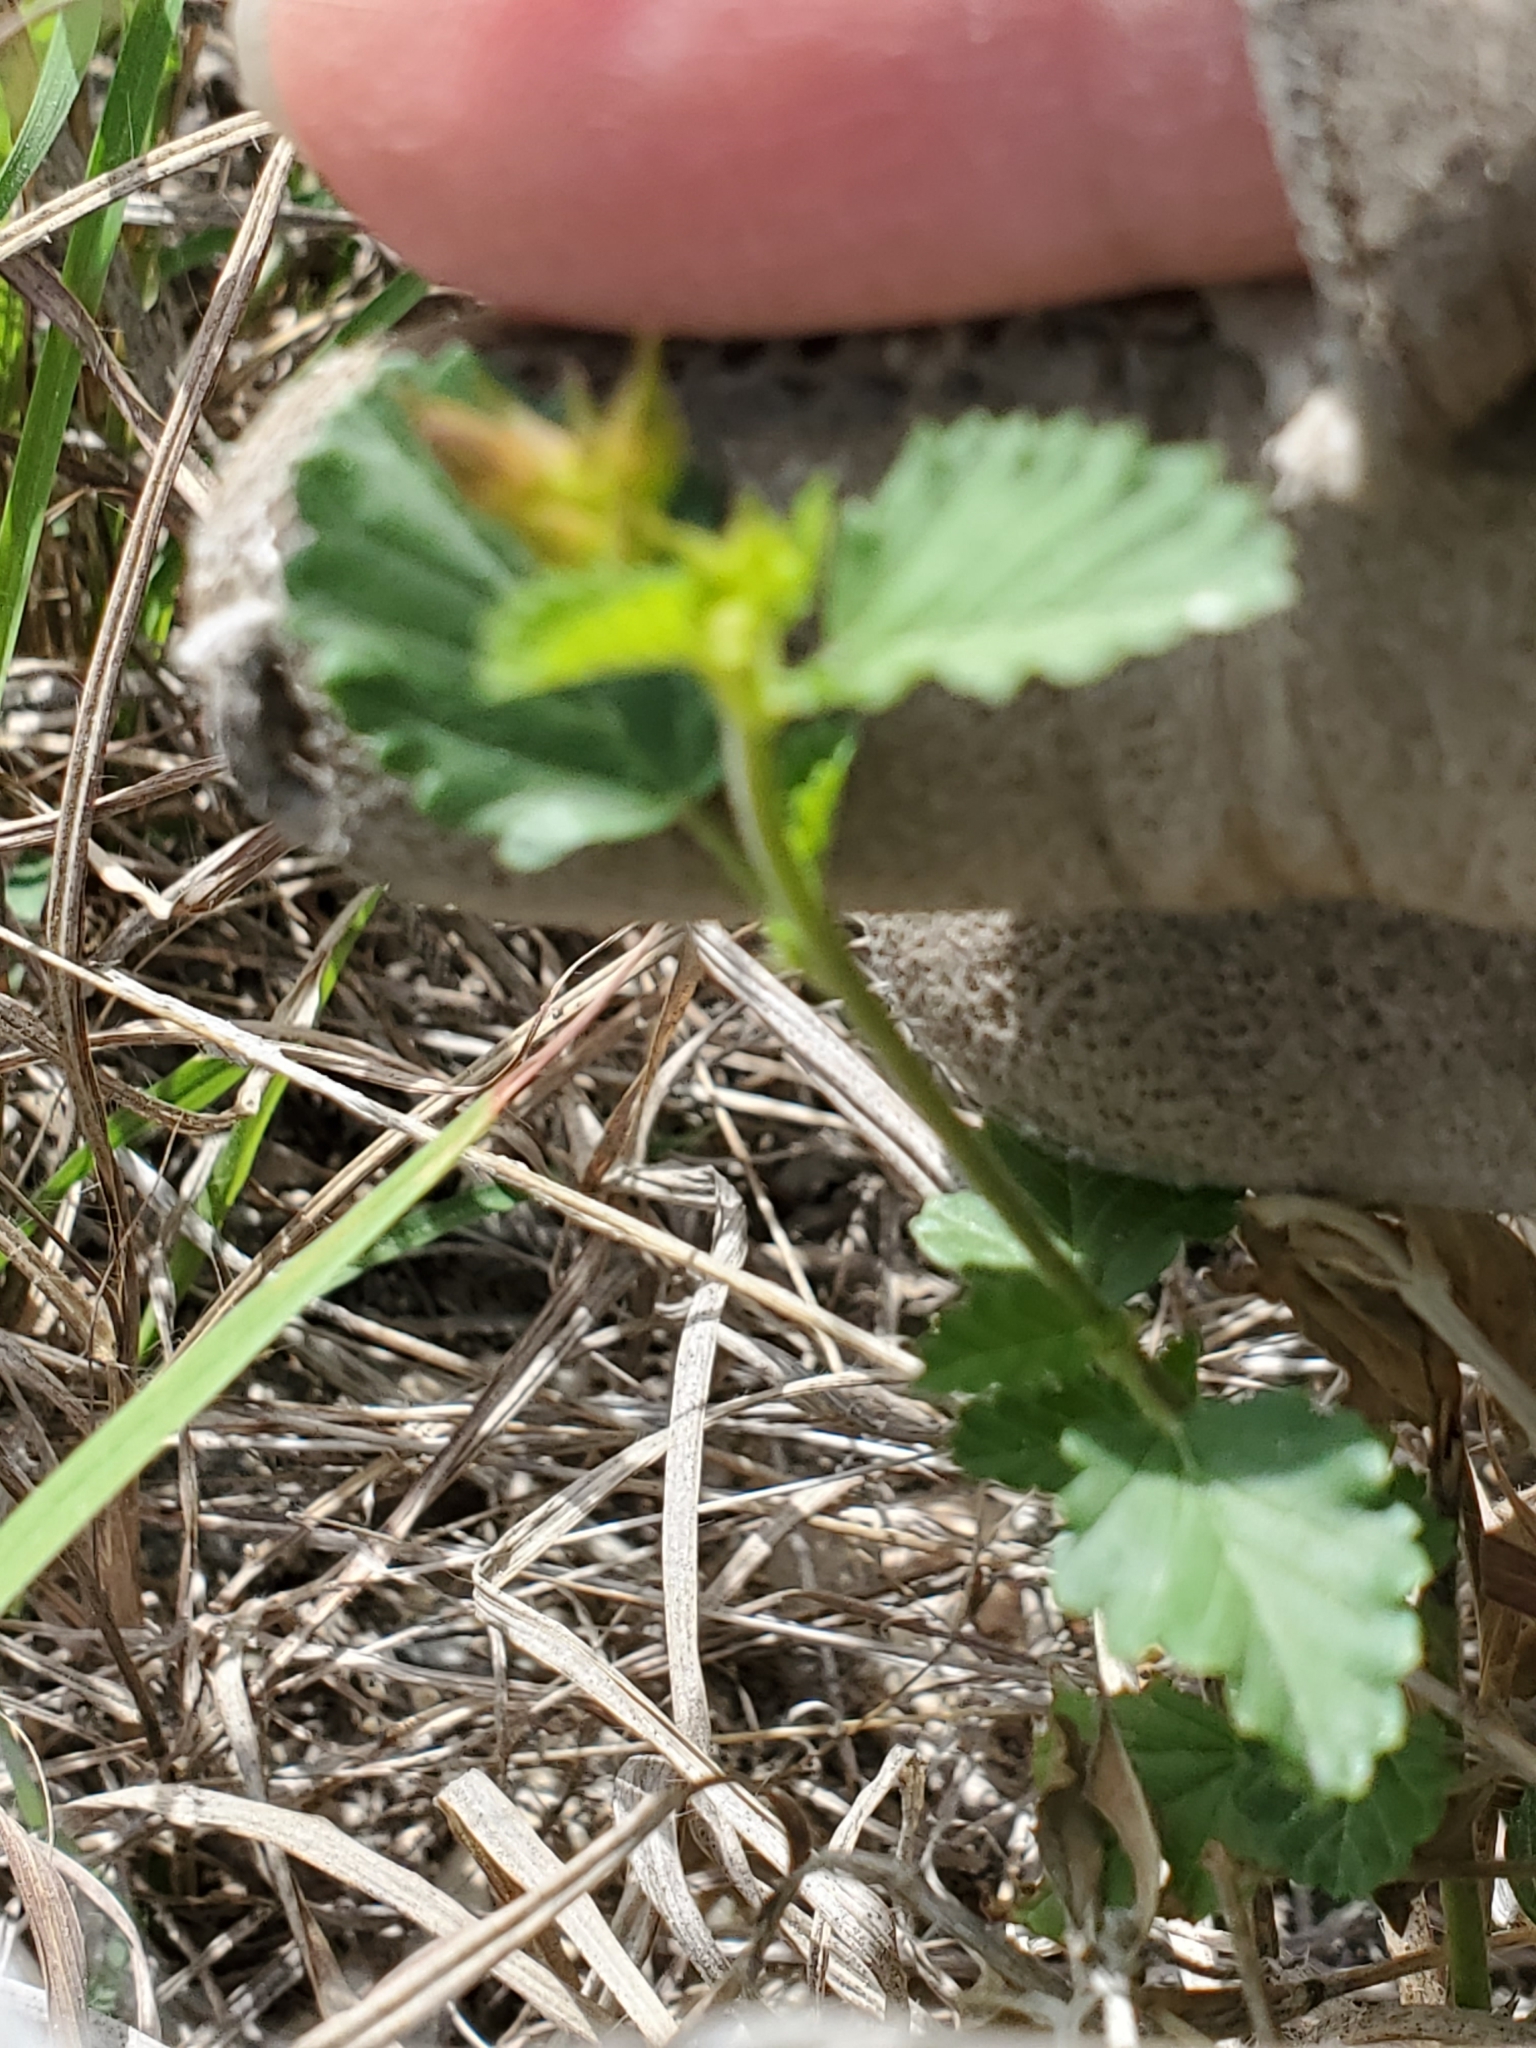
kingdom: Plantae
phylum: Tracheophyta
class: Magnoliopsida
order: Malvales
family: Malvaceae
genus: Melochia
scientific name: Melochia pyramidata
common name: Pyramidflower
